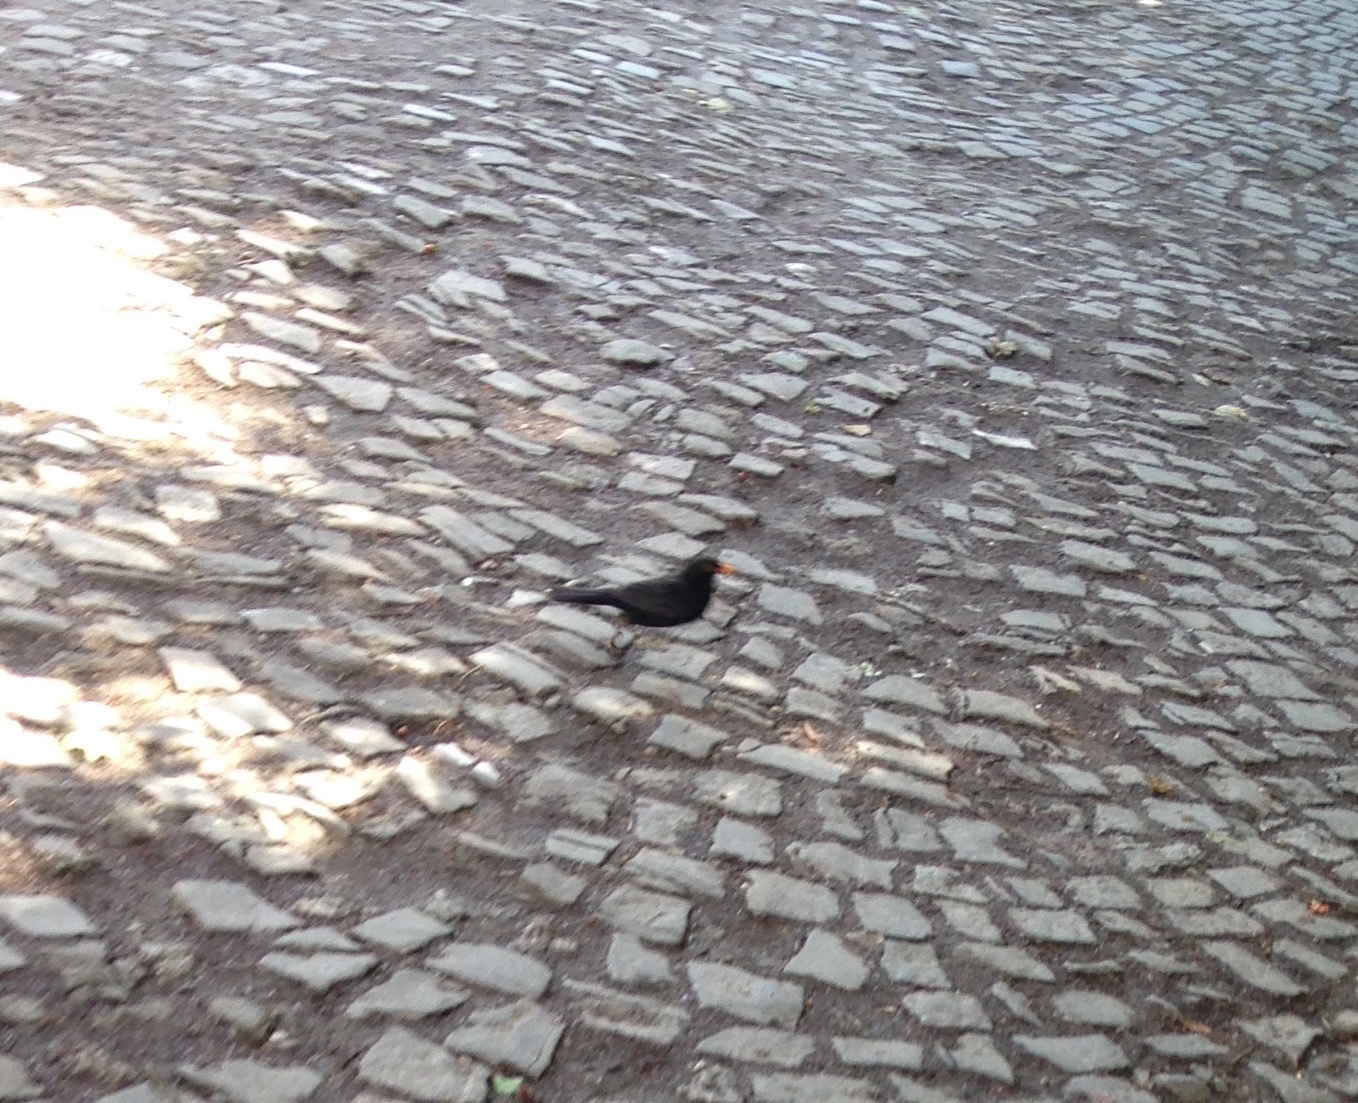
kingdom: Animalia
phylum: Chordata
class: Aves
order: Passeriformes
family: Turdidae
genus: Turdus
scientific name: Turdus merula
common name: Common blackbird
